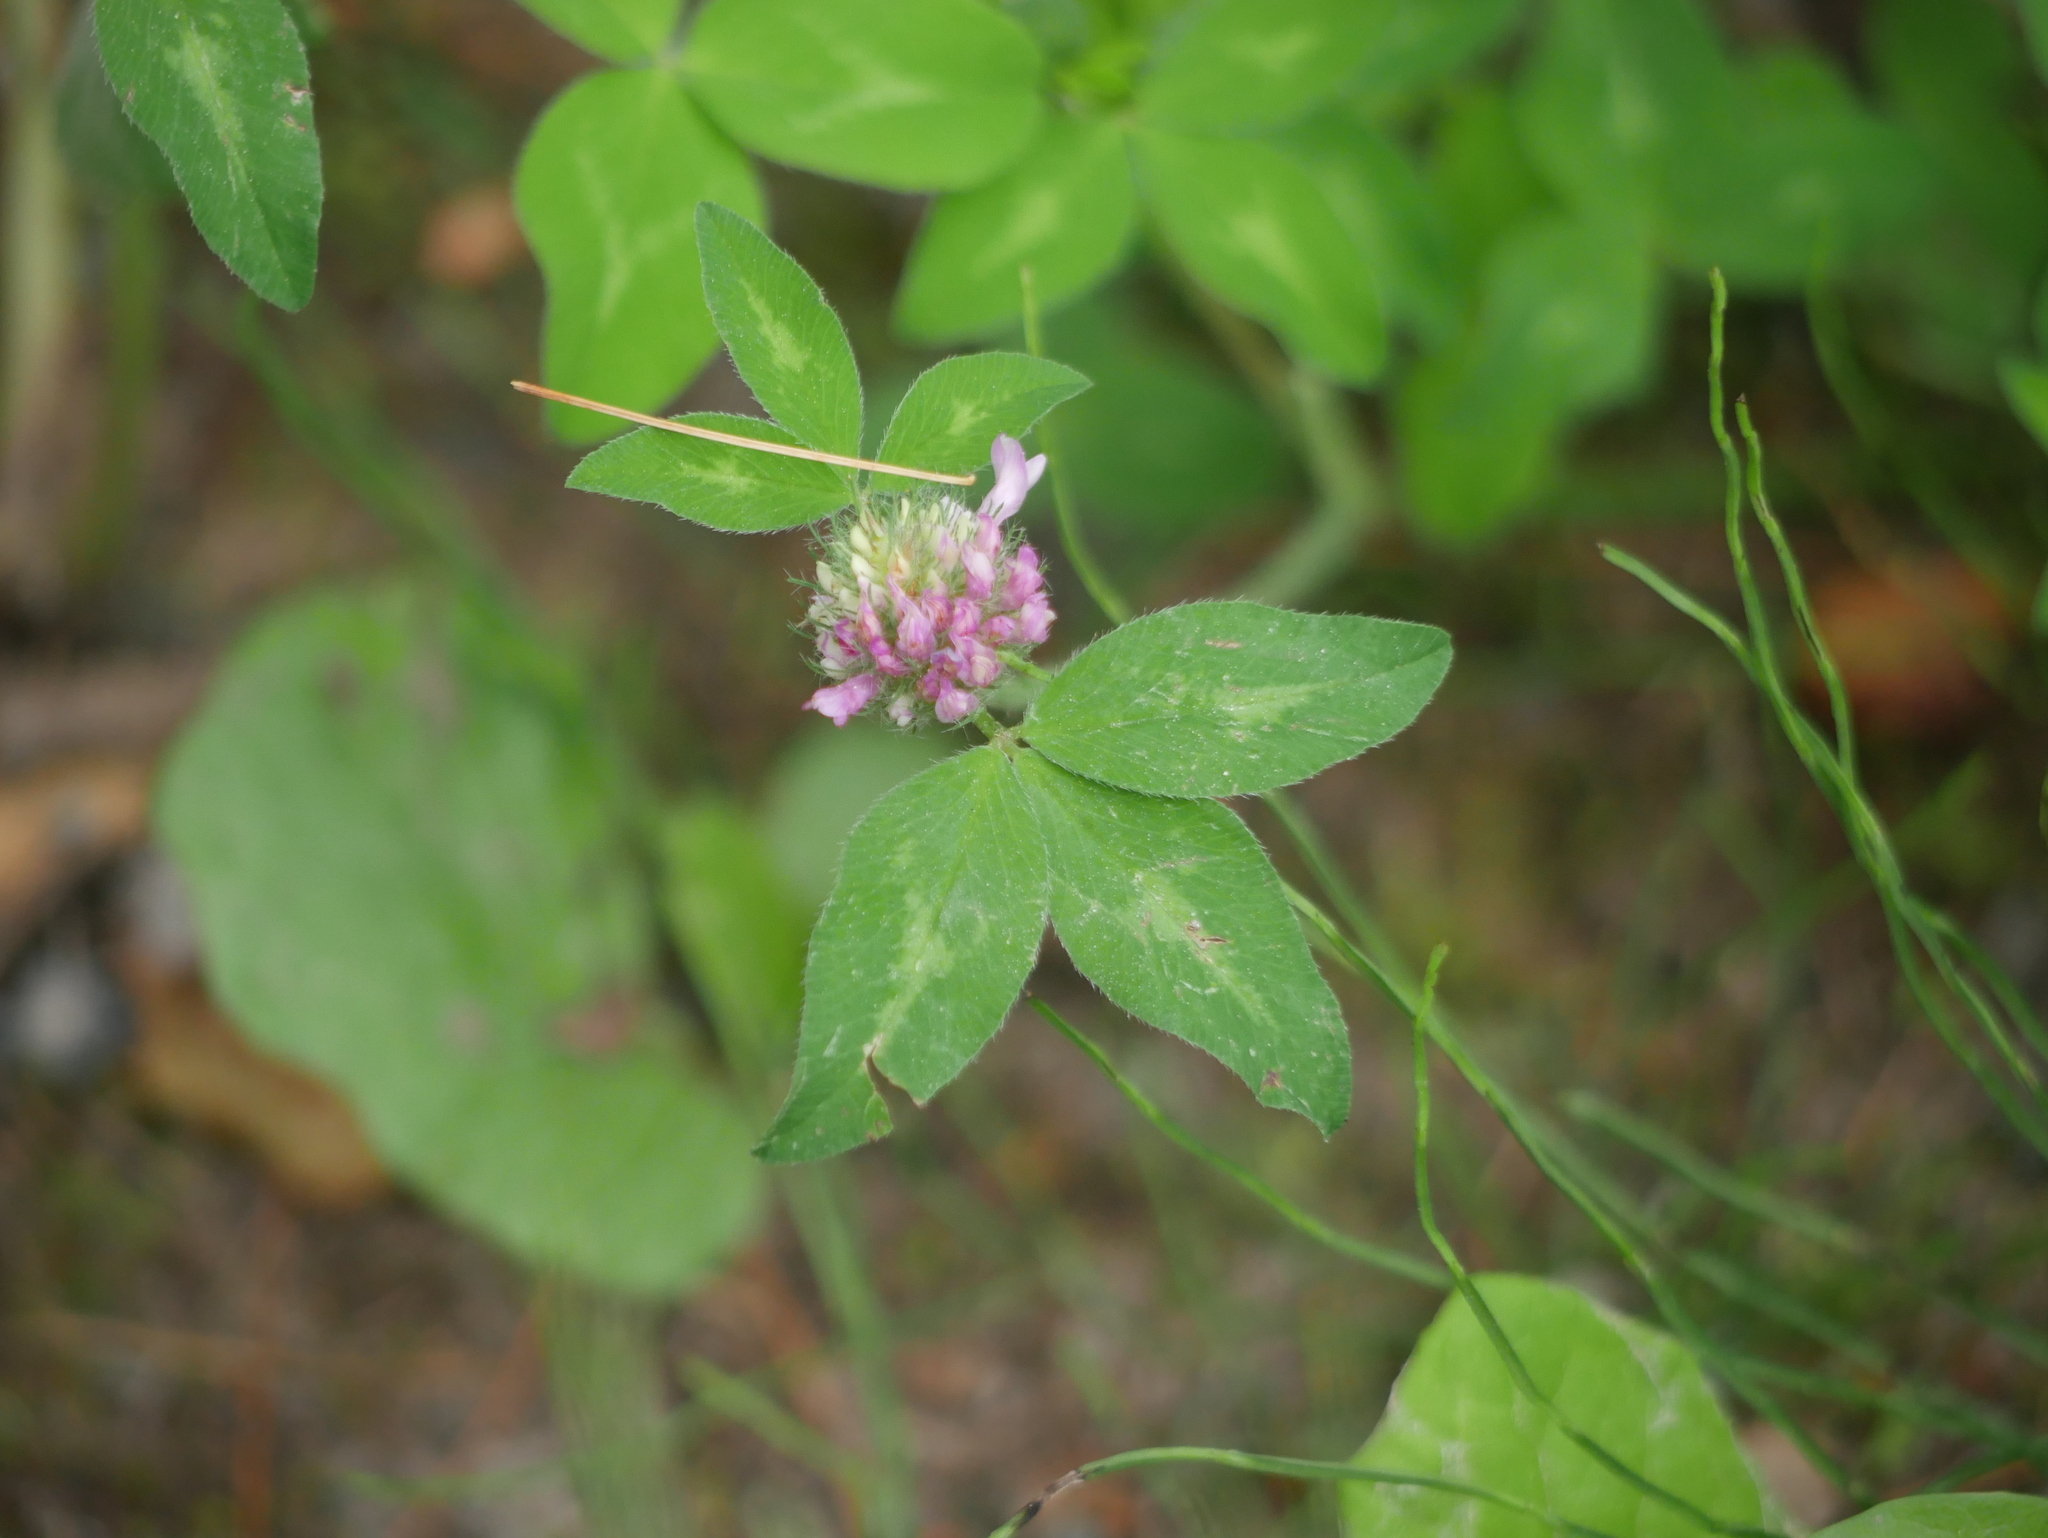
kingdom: Plantae
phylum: Tracheophyta
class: Magnoliopsida
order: Fabales
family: Fabaceae
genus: Trifolium
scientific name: Trifolium pratense
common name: Red clover
